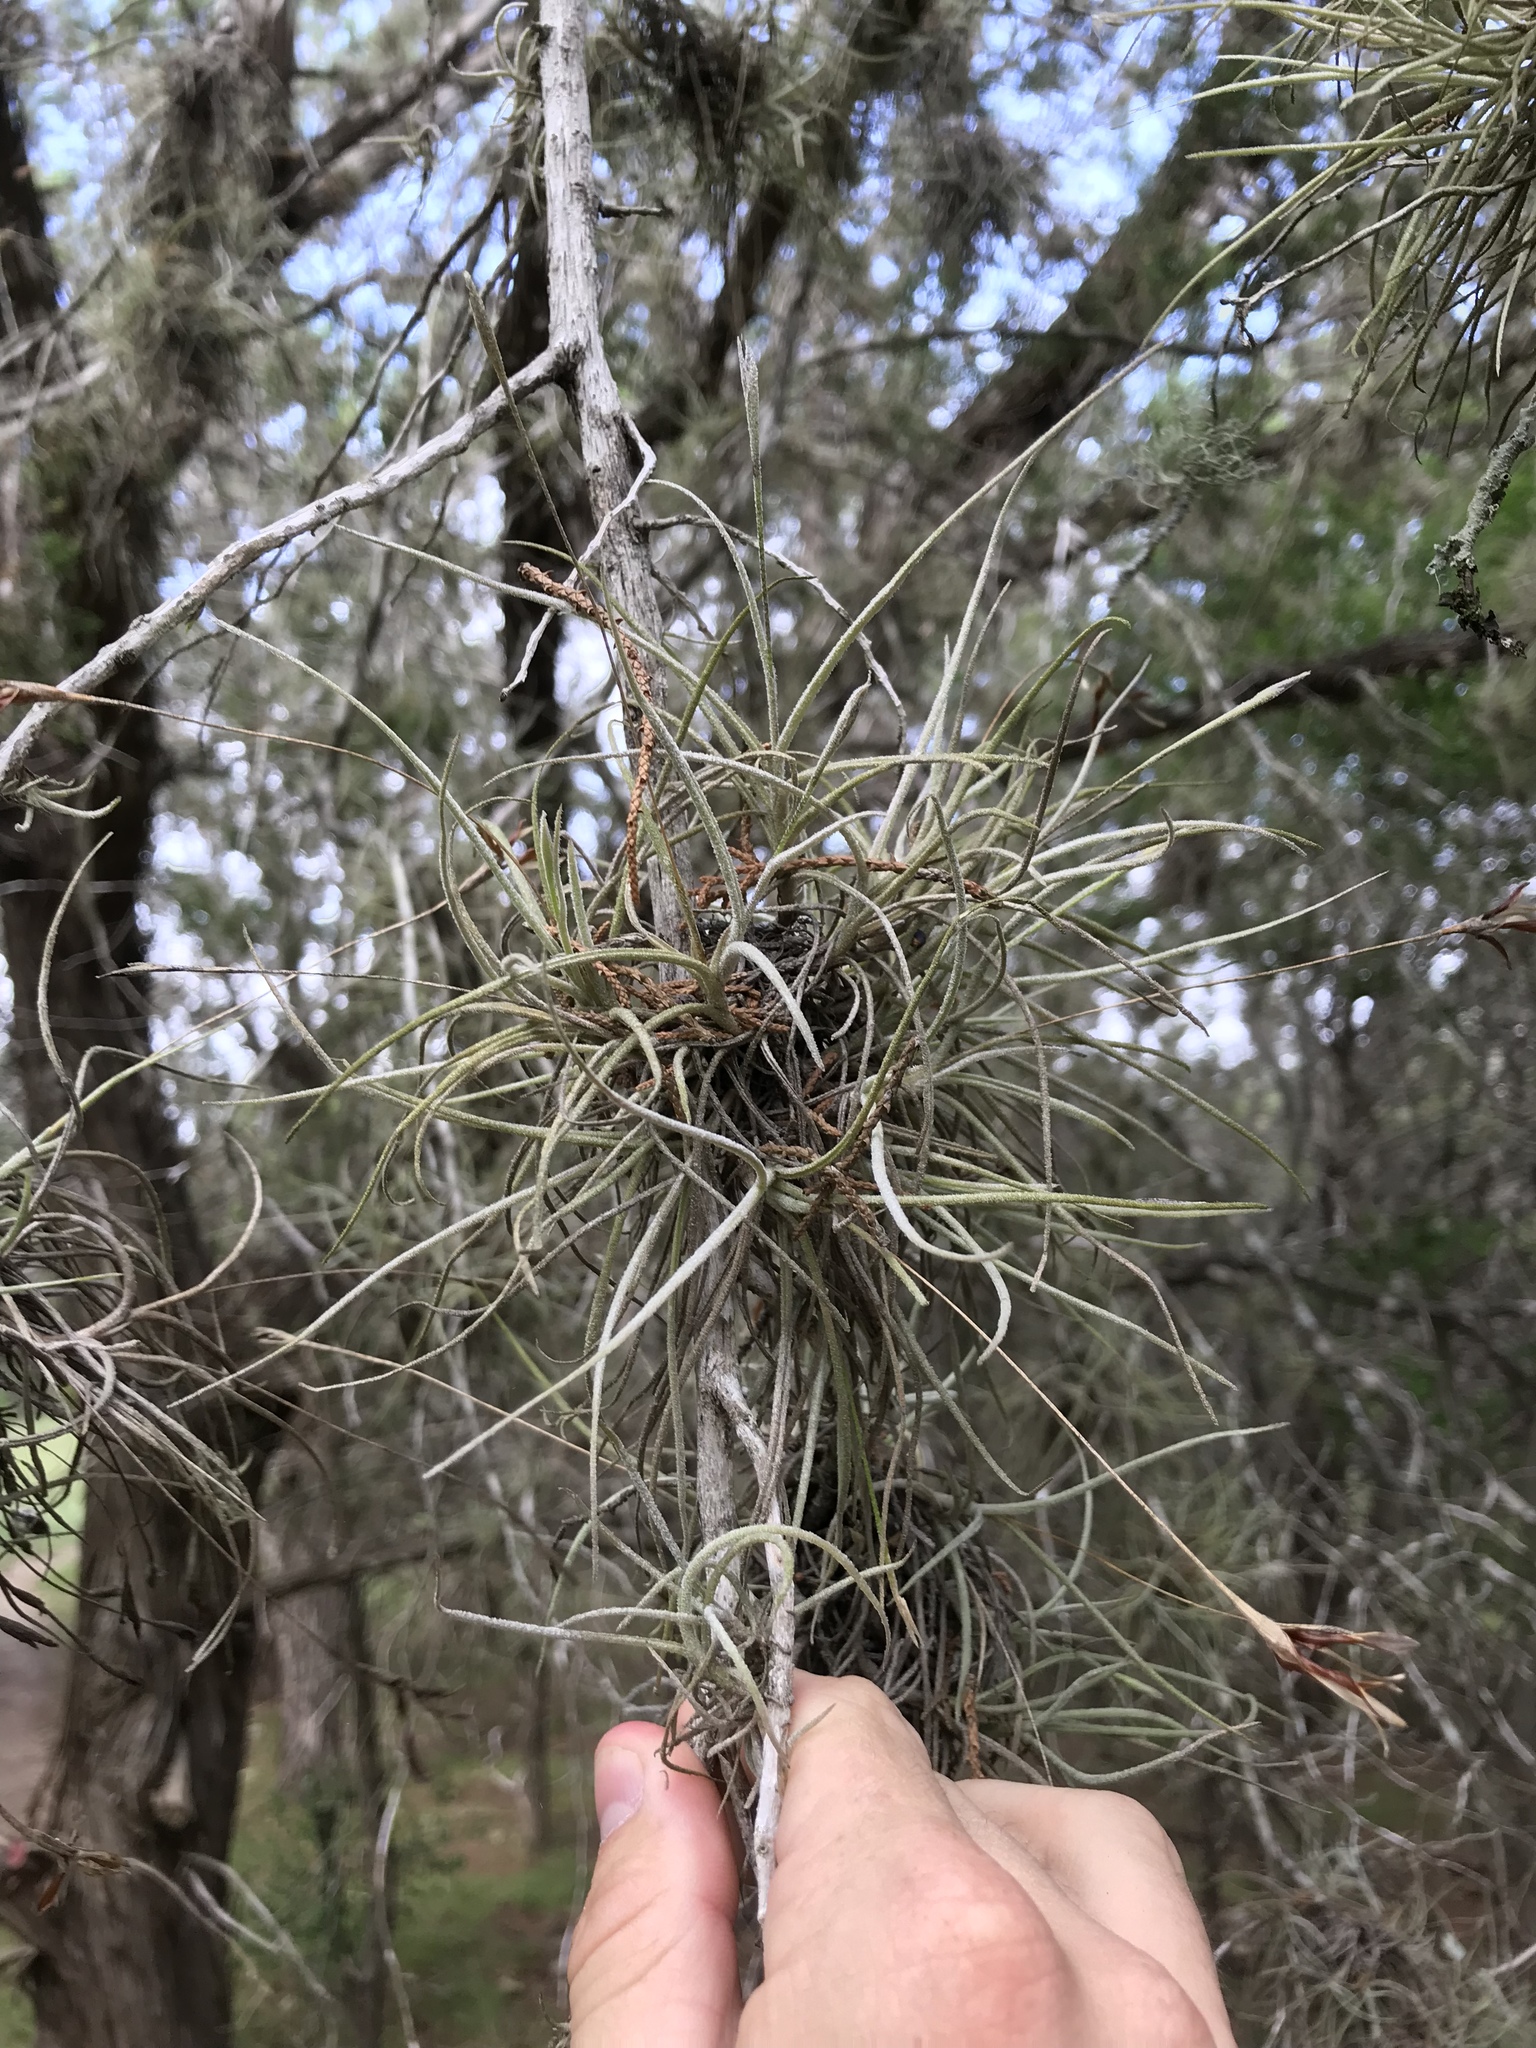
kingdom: Plantae
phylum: Tracheophyta
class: Liliopsida
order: Poales
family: Bromeliaceae
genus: Tillandsia
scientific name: Tillandsia recurvata
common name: Small ballmoss
